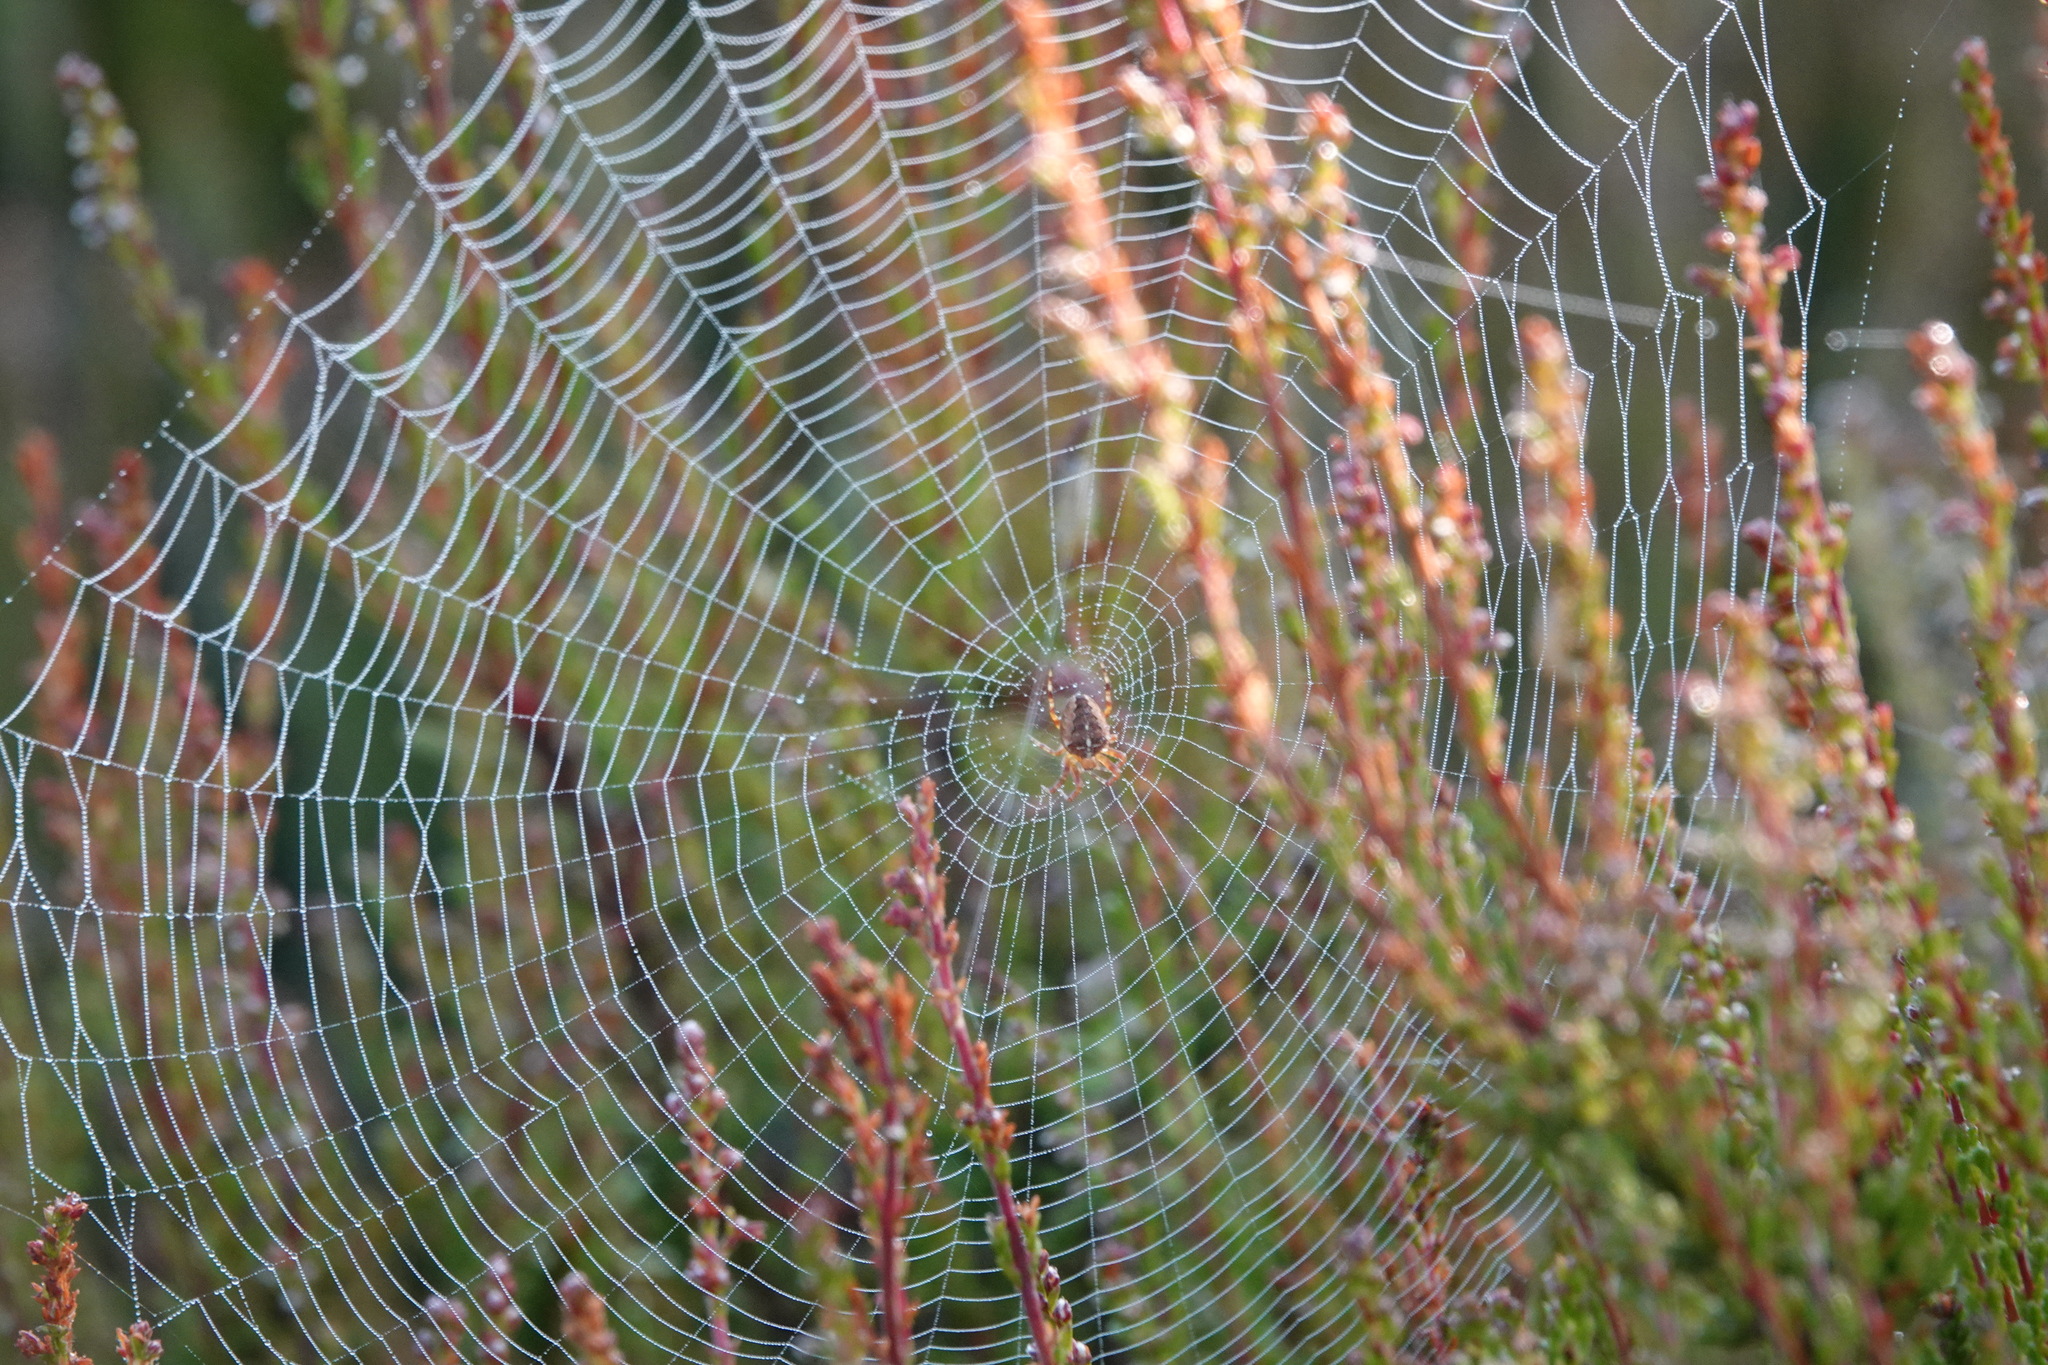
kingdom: Animalia
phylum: Arthropoda
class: Arachnida
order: Araneae
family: Araneidae
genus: Araneus
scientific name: Araneus diadematus
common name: Cross orbweaver
